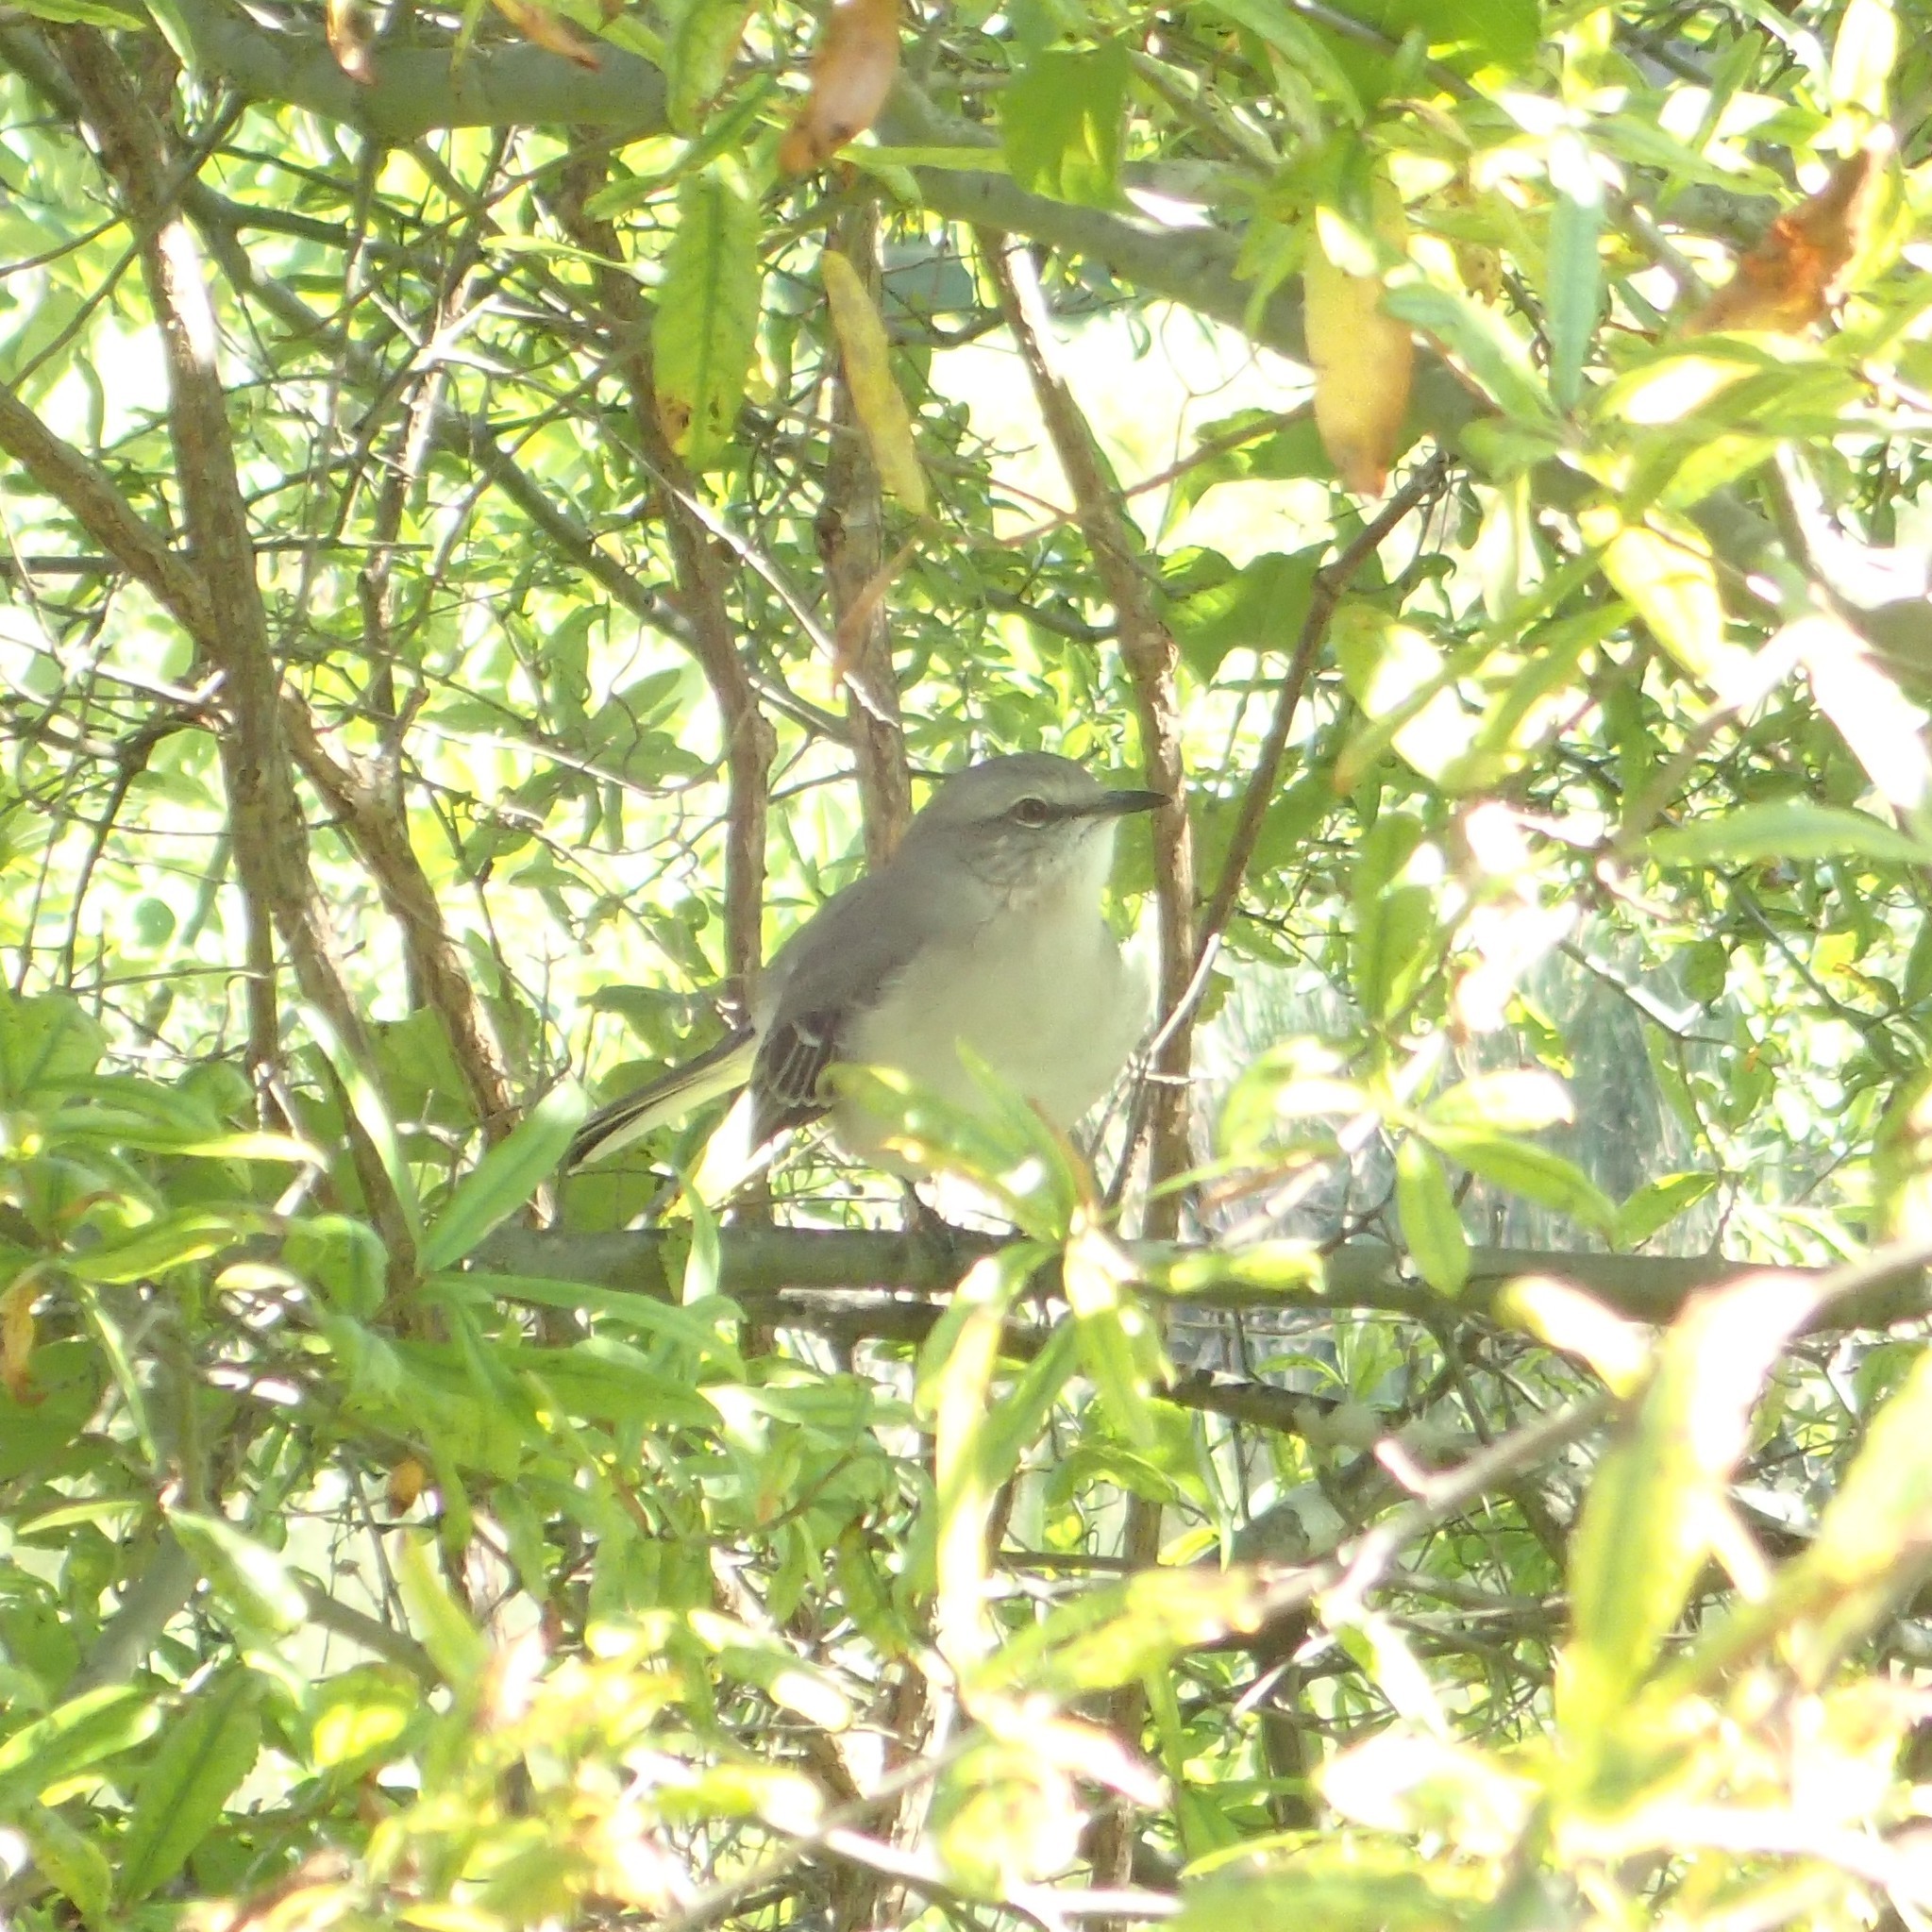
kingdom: Animalia
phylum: Chordata
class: Aves
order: Passeriformes
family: Mimidae
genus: Mimus
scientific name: Mimus polyglottos
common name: Northern mockingbird
